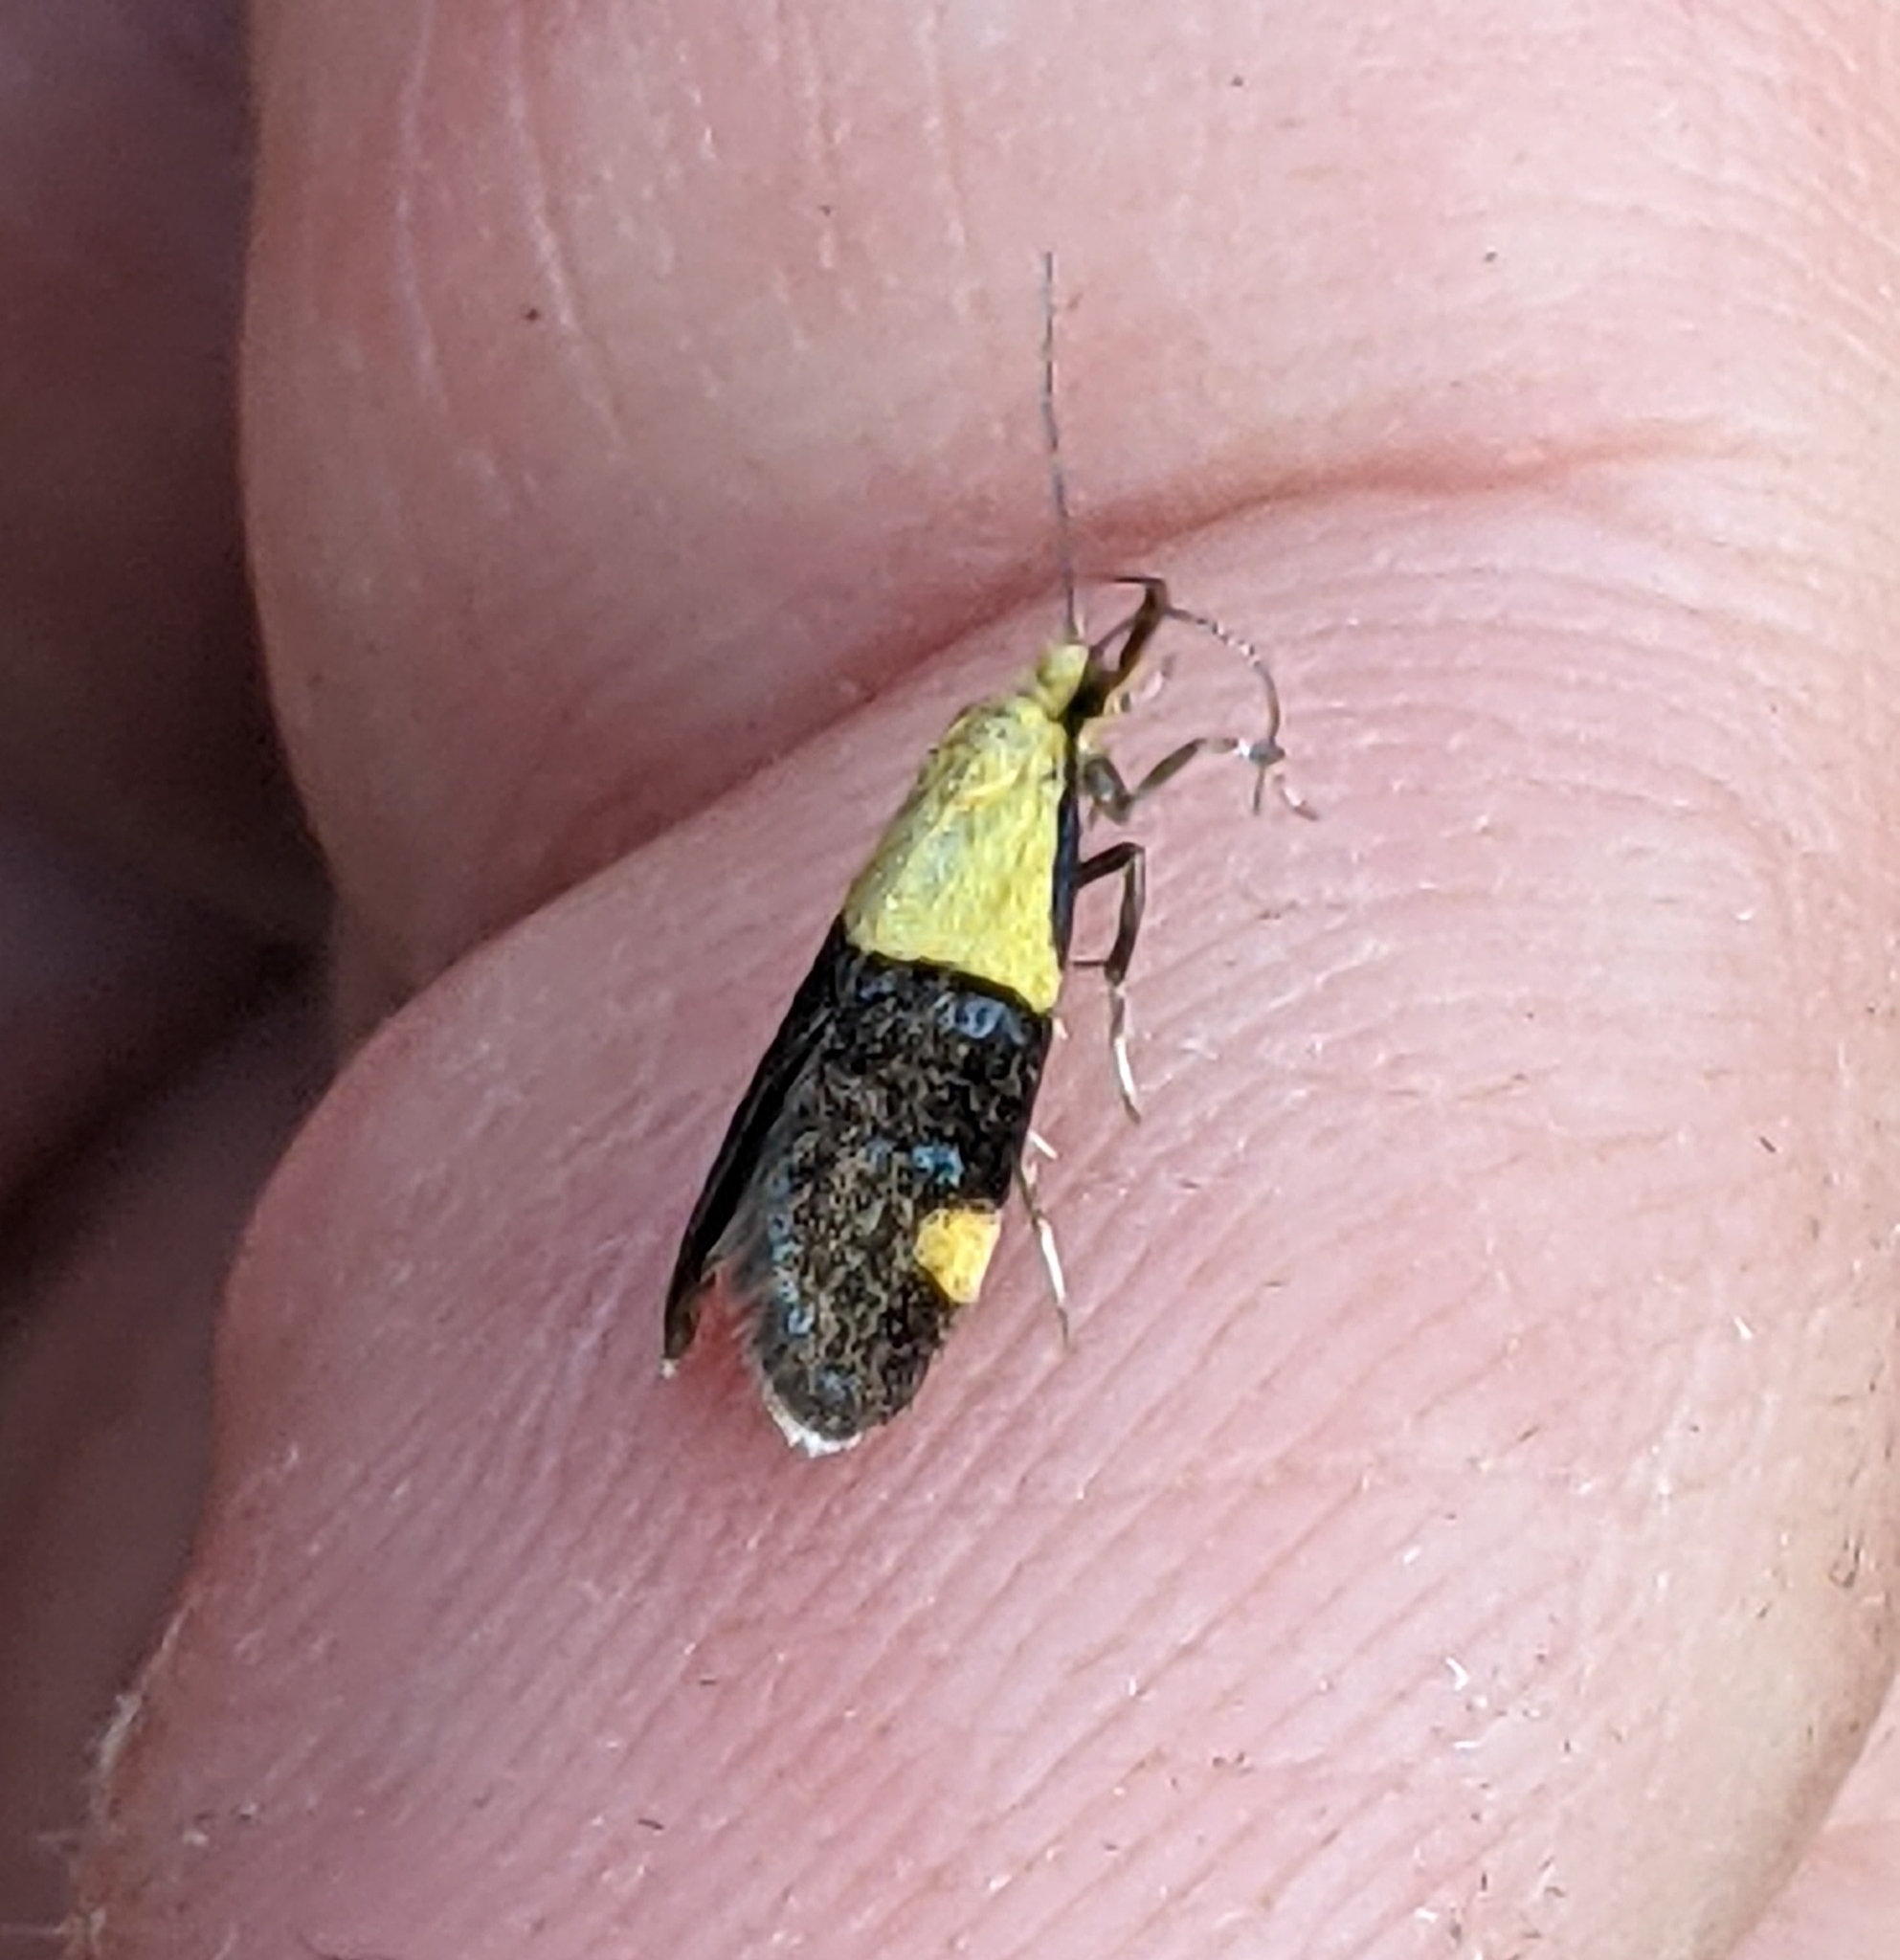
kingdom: Animalia
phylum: Arthropoda
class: Insecta
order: Lepidoptera
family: Oecophoridae
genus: Oecophora
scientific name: Oecophora bractella
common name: Gold-base tubic
